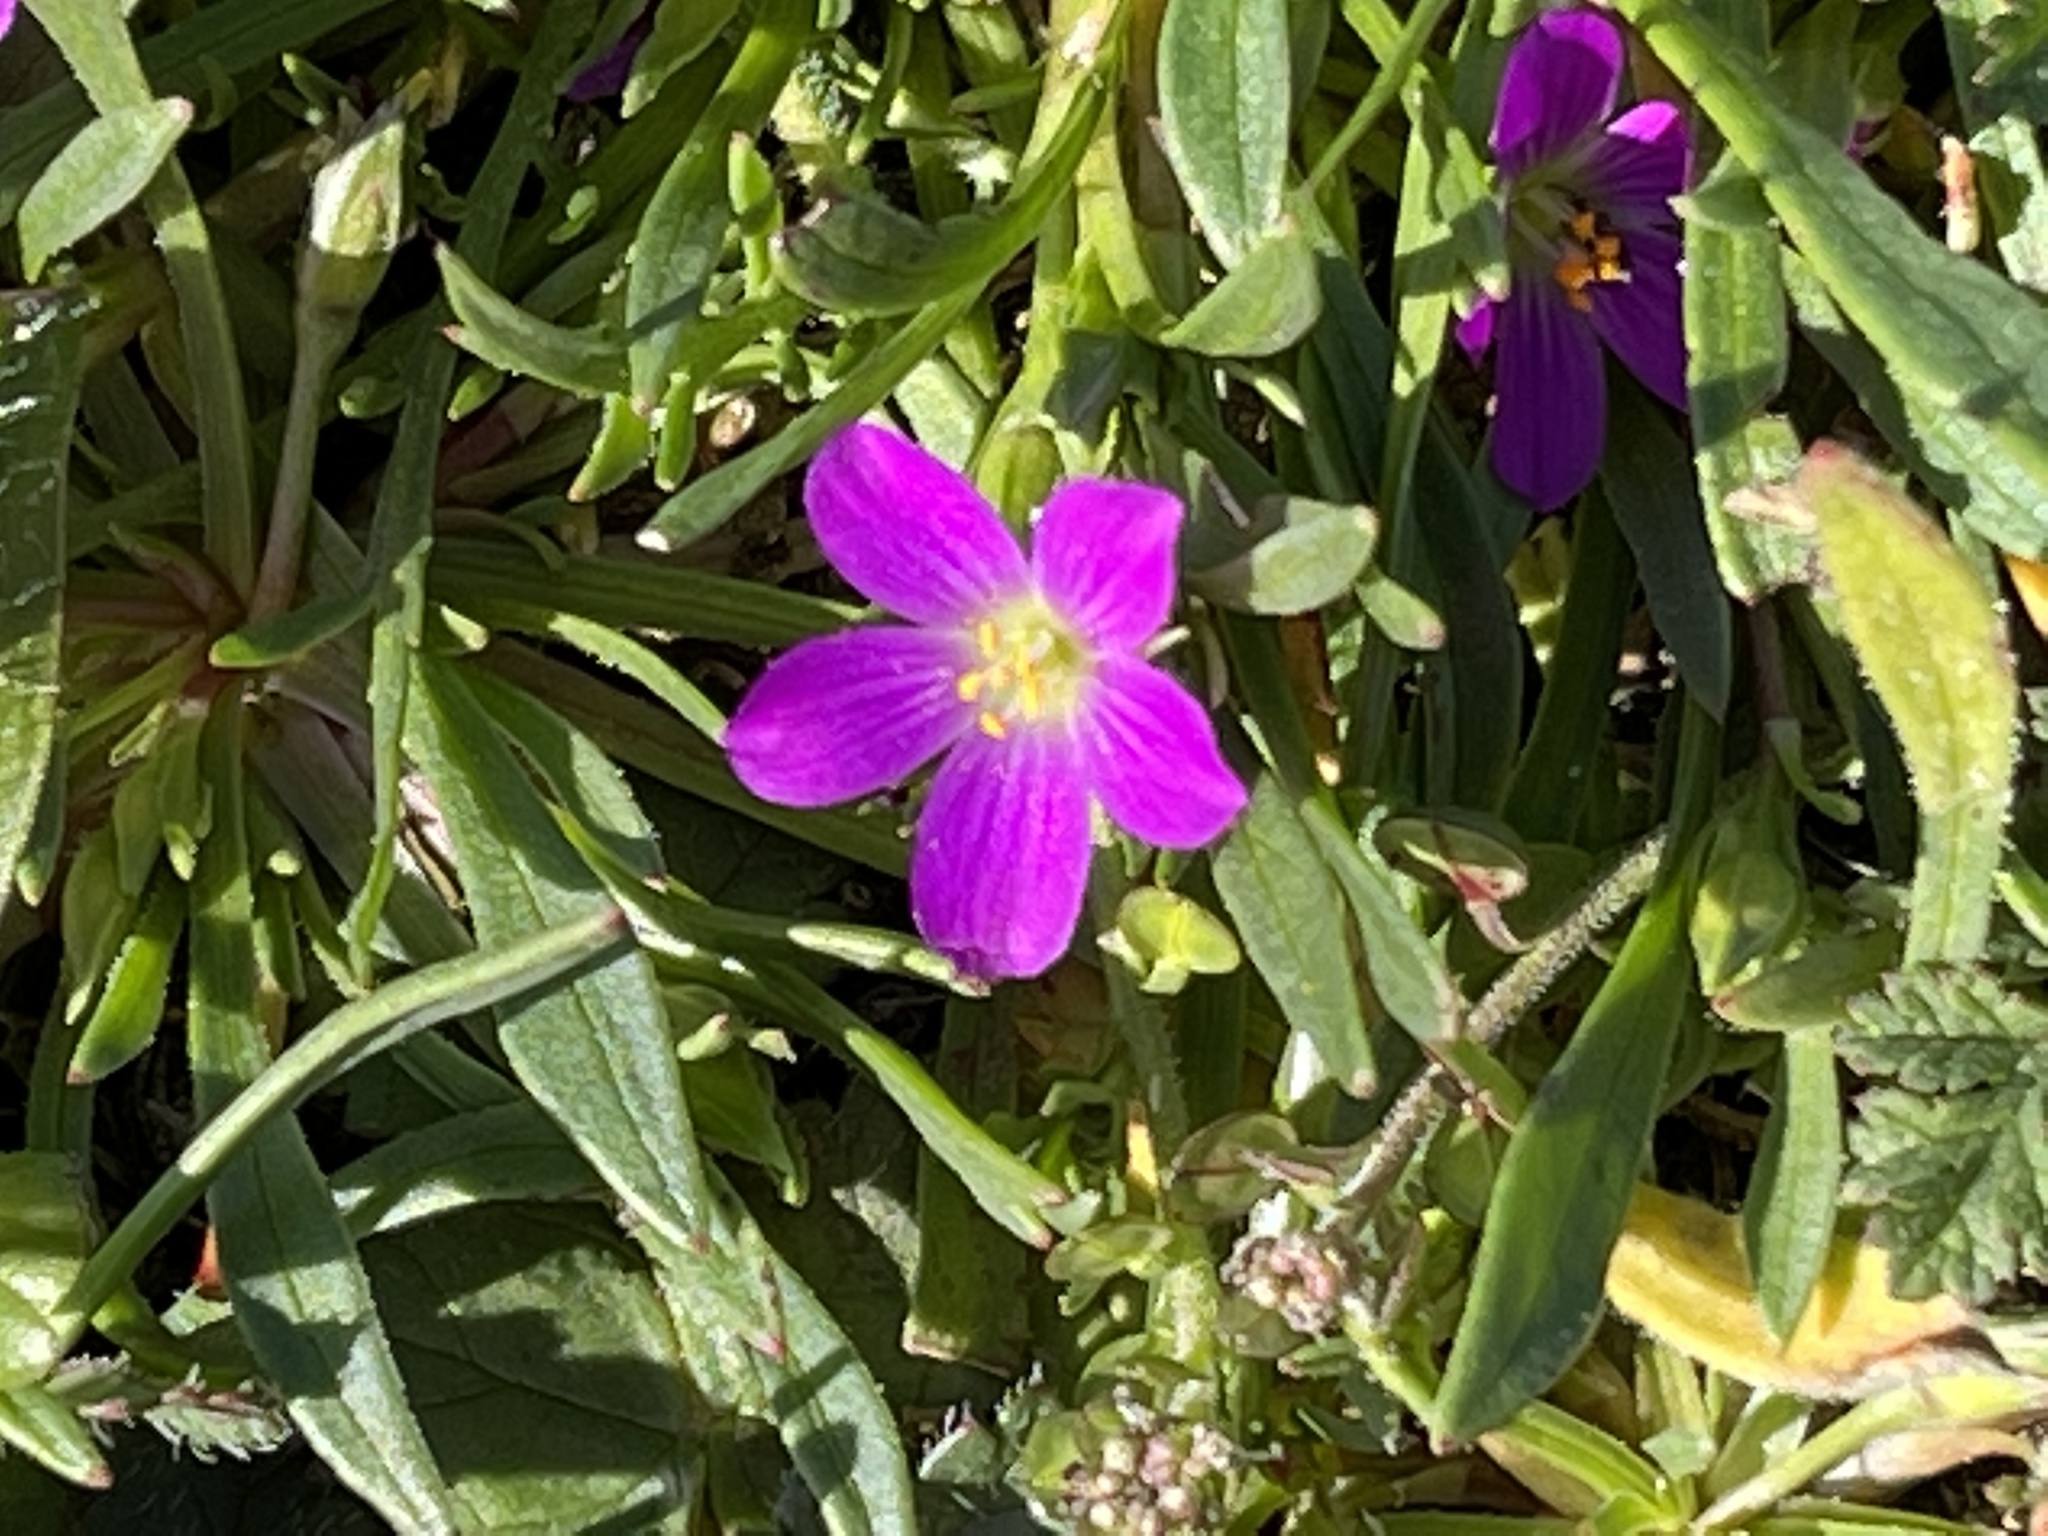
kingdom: Plantae
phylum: Tracheophyta
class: Magnoliopsida
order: Caryophyllales
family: Montiaceae
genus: Calandrinia
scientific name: Calandrinia menziesii
